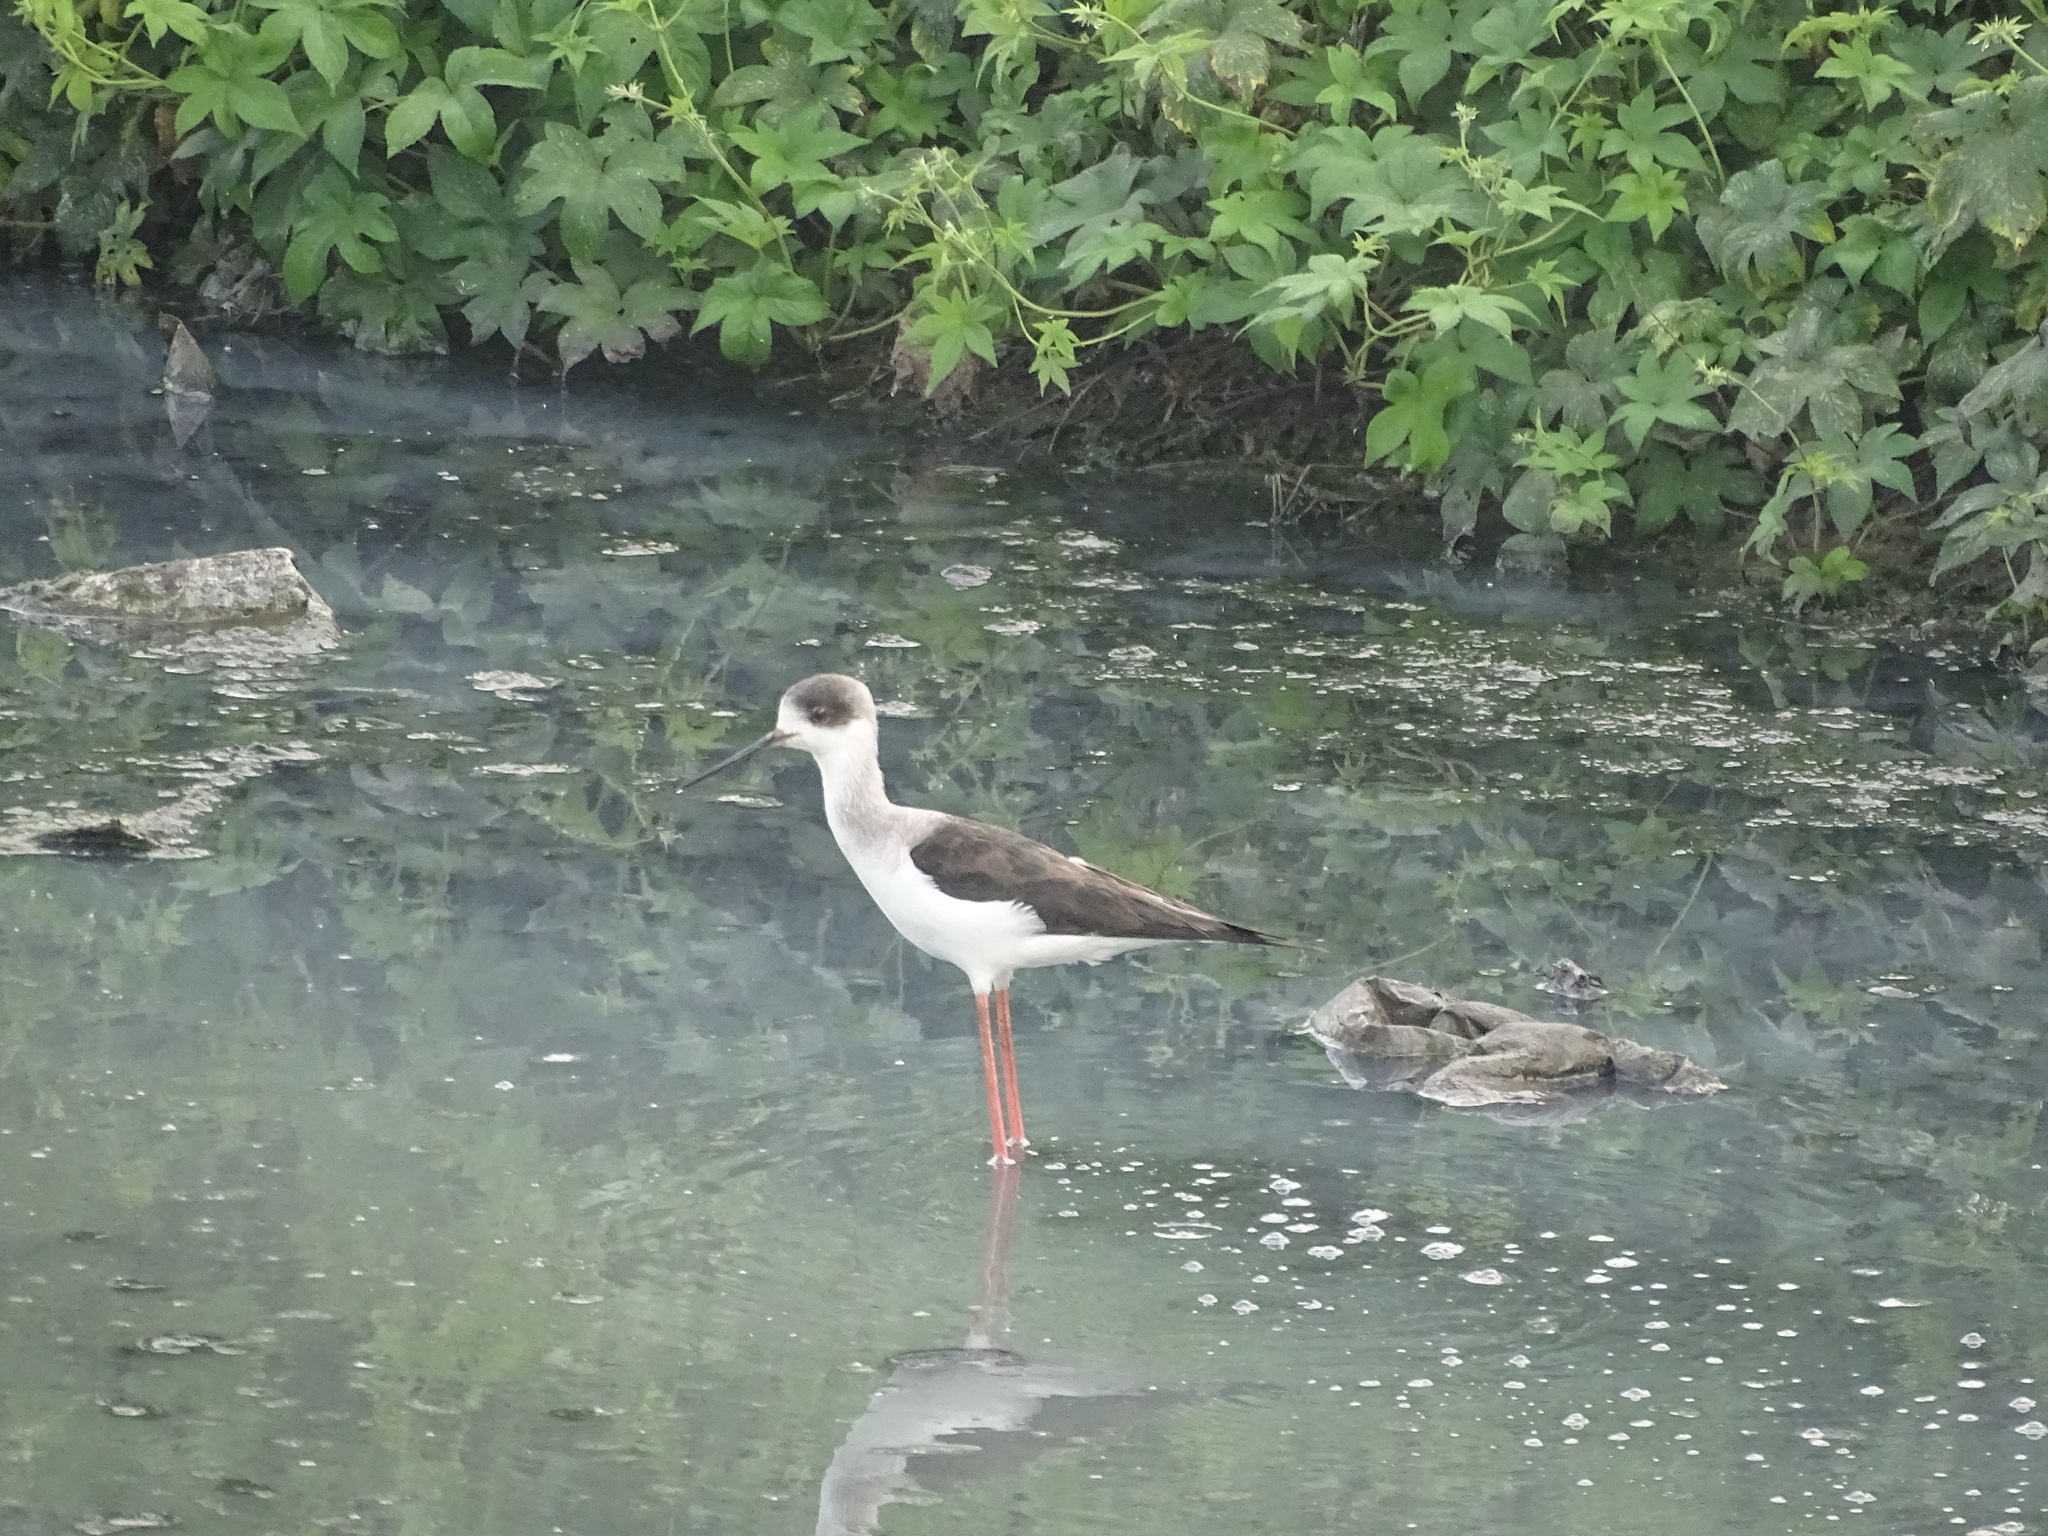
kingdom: Animalia
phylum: Chordata
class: Aves
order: Charadriiformes
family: Recurvirostridae
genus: Himantopus
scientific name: Himantopus himantopus
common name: Black-winged stilt
